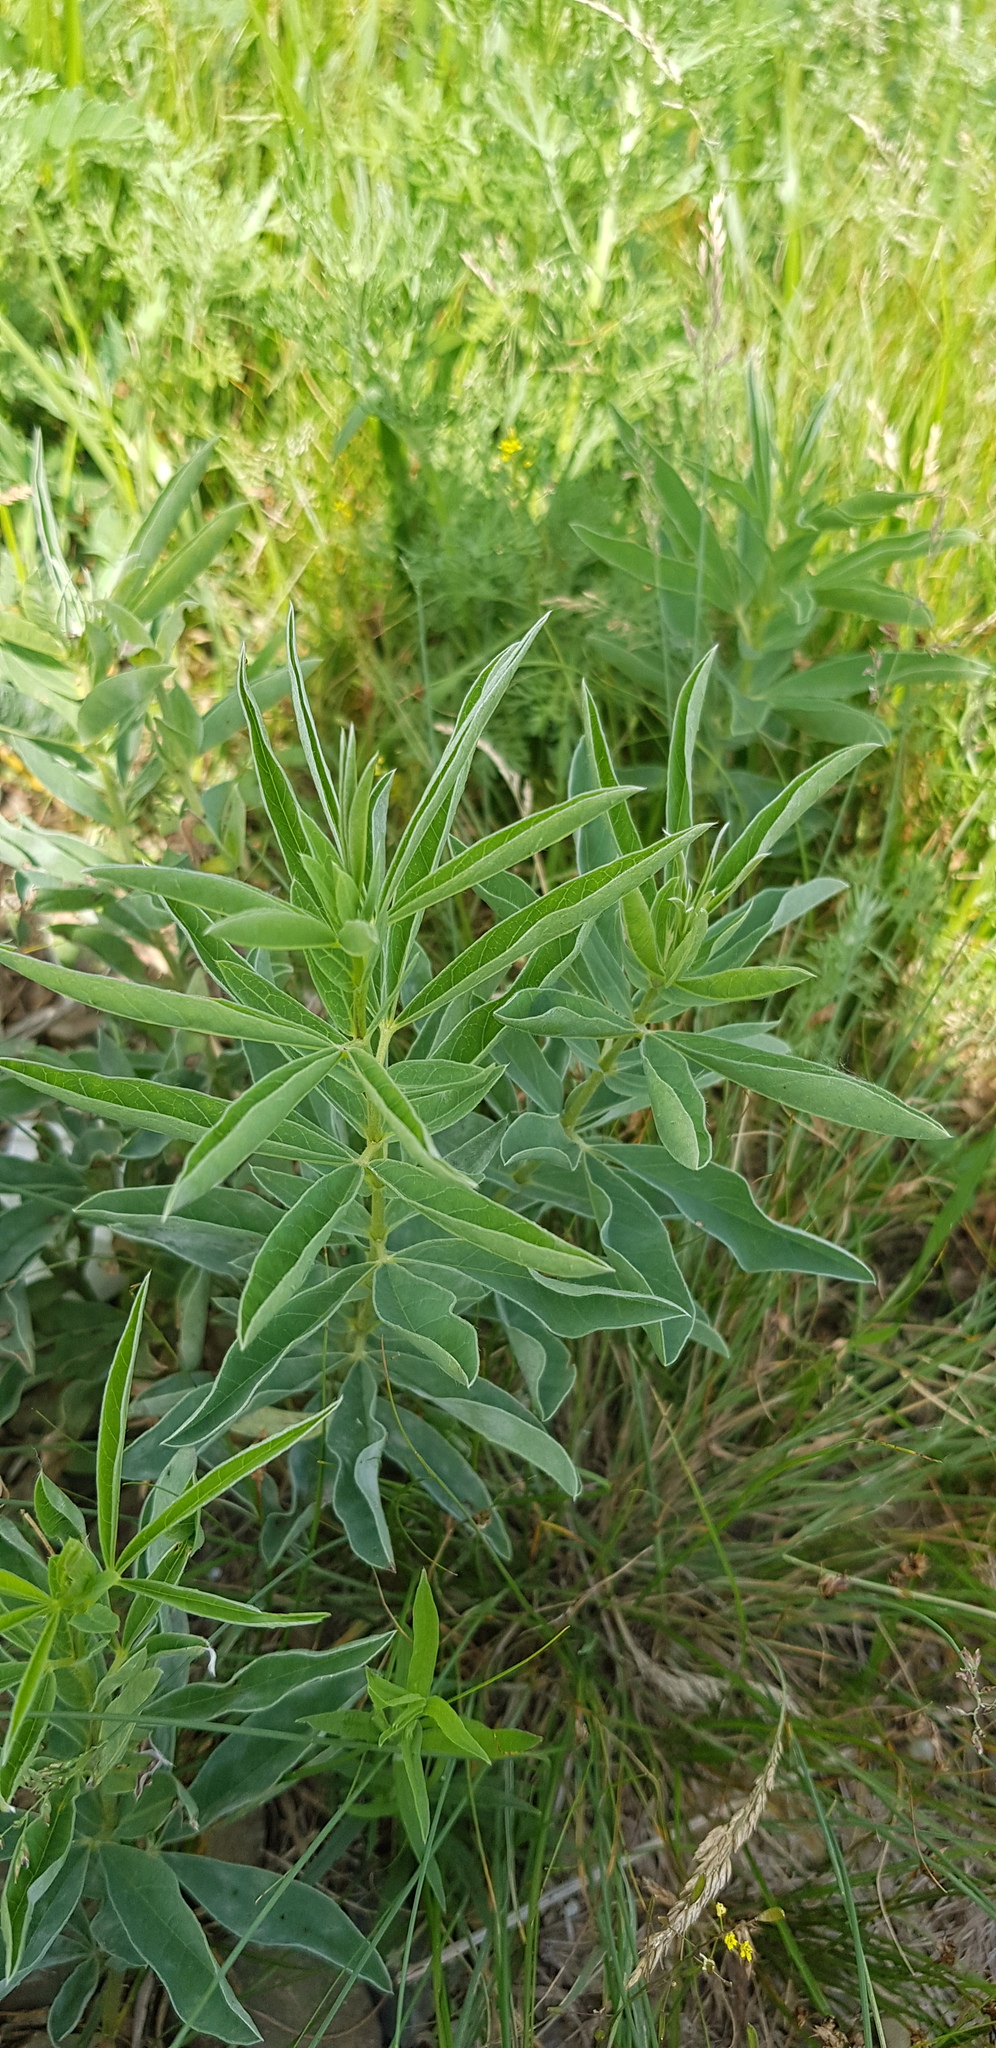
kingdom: Plantae
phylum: Tracheophyta
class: Magnoliopsida
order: Fabales
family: Fabaceae
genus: Thermopsis
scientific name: Thermopsis lanceolata
